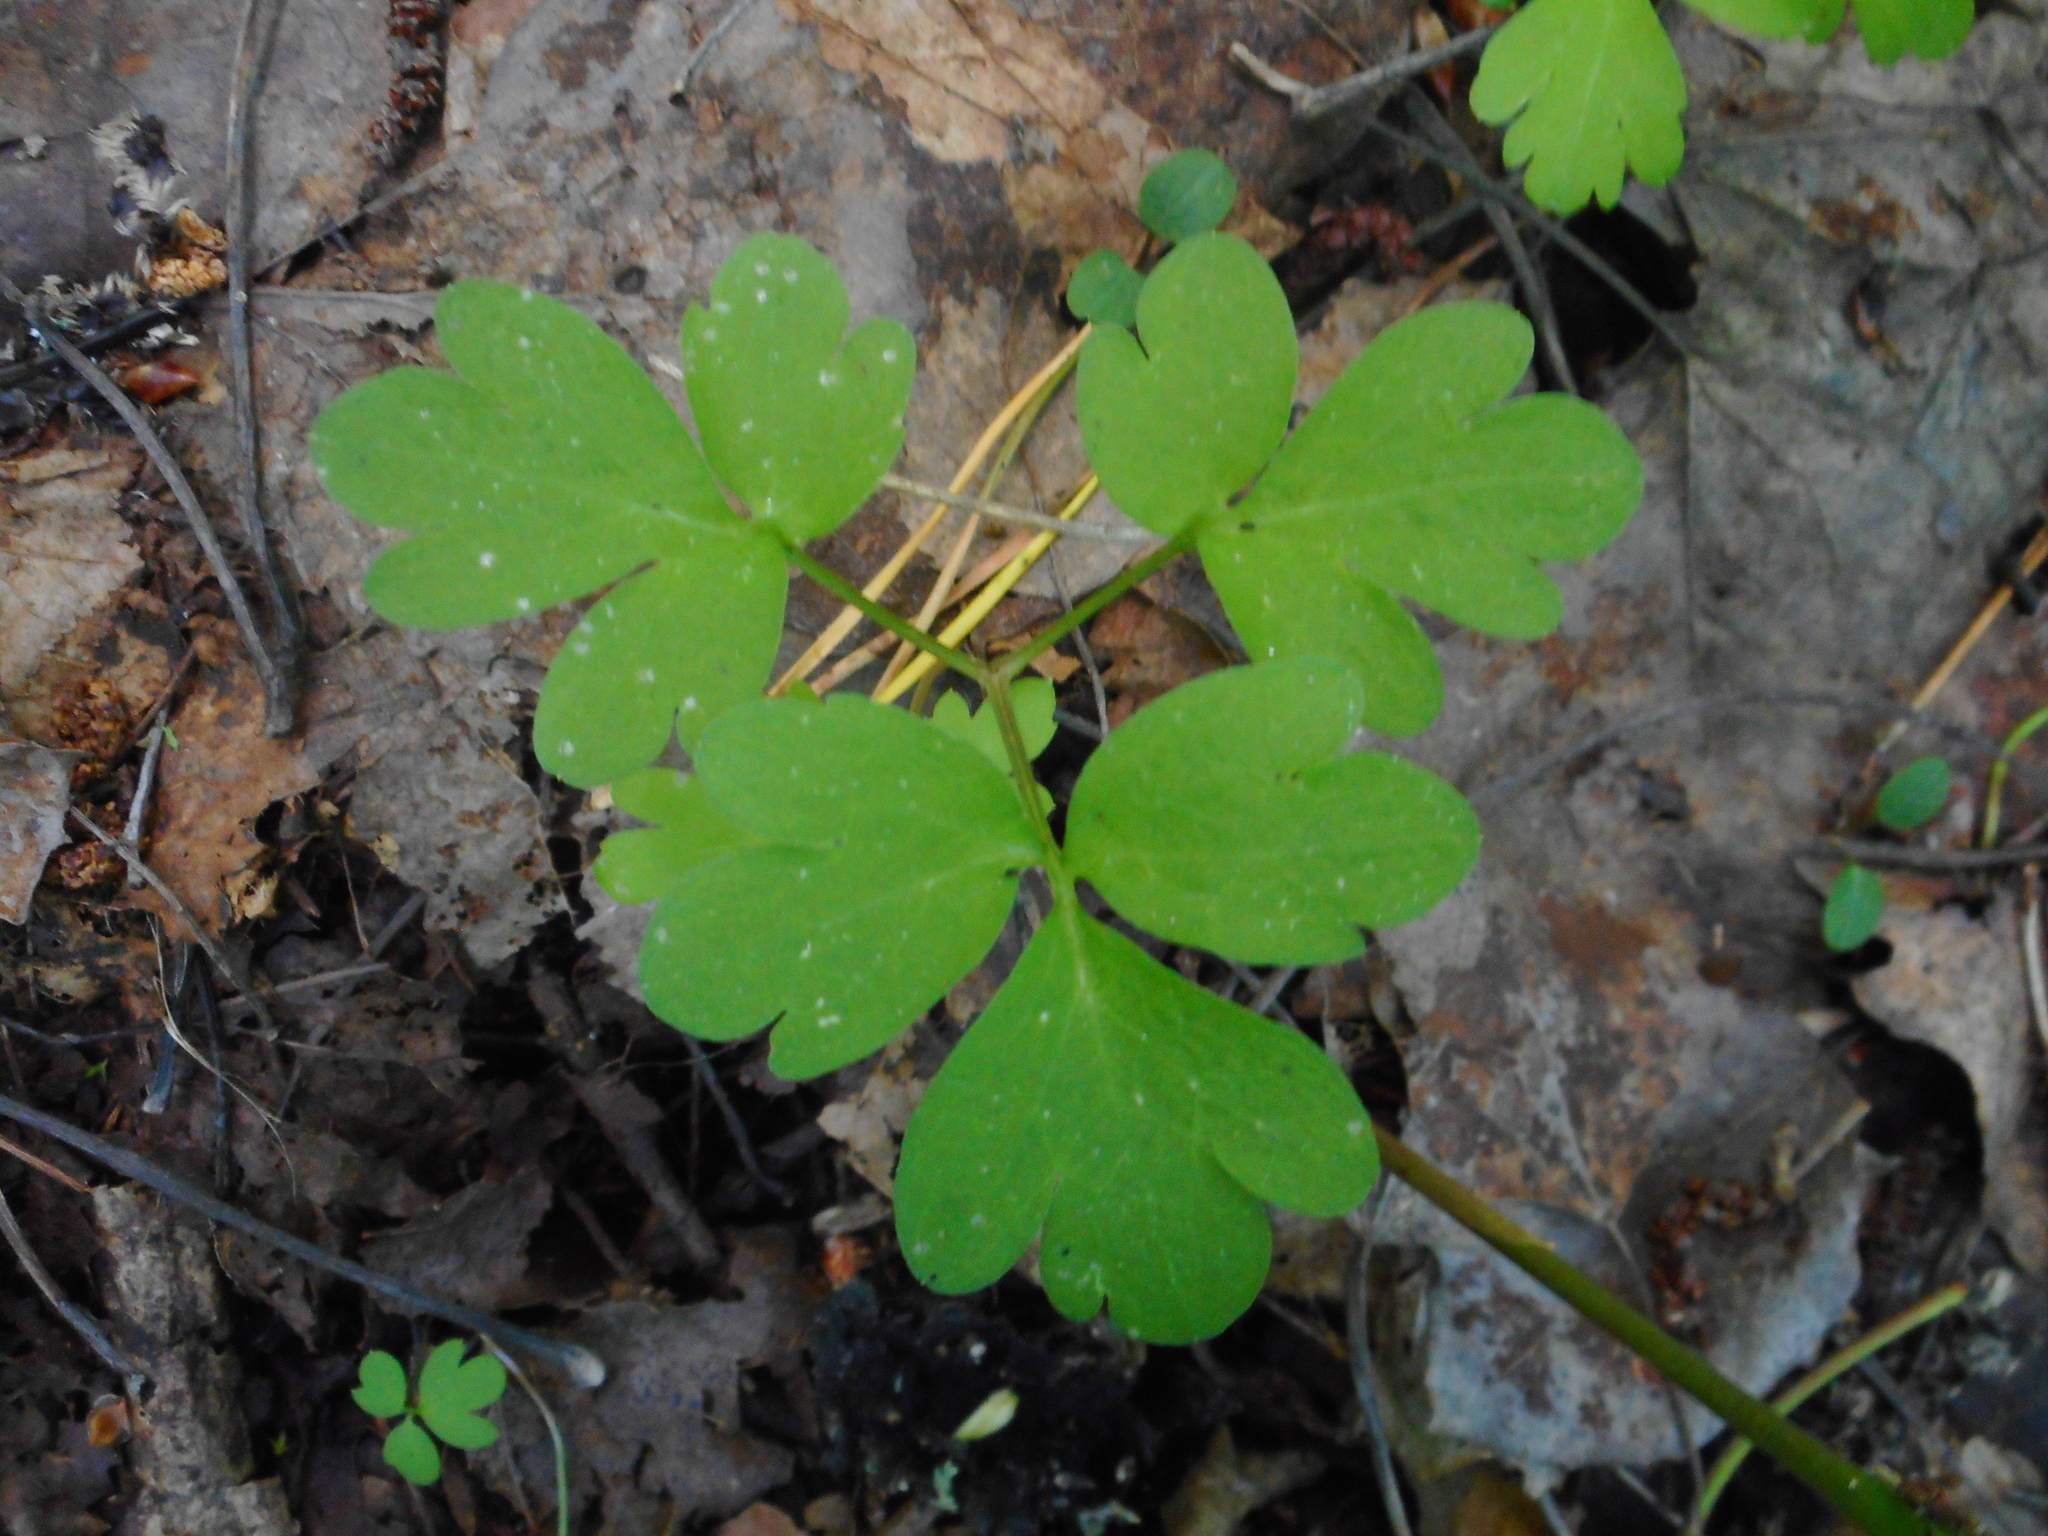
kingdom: Plantae
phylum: Tracheophyta
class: Magnoliopsida
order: Dipsacales
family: Viburnaceae
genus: Adoxa
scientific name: Adoxa moschatellina
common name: Moschatel
